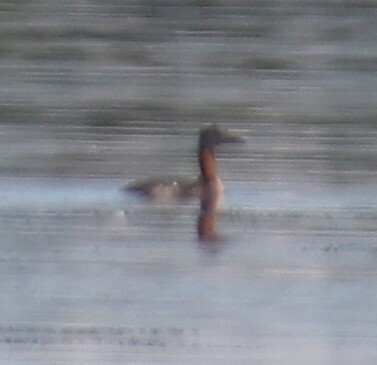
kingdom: Animalia
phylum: Chordata
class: Aves
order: Podicipediformes
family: Podicipedidae
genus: Podiceps
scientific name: Podiceps grisegena
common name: Red-necked grebe
